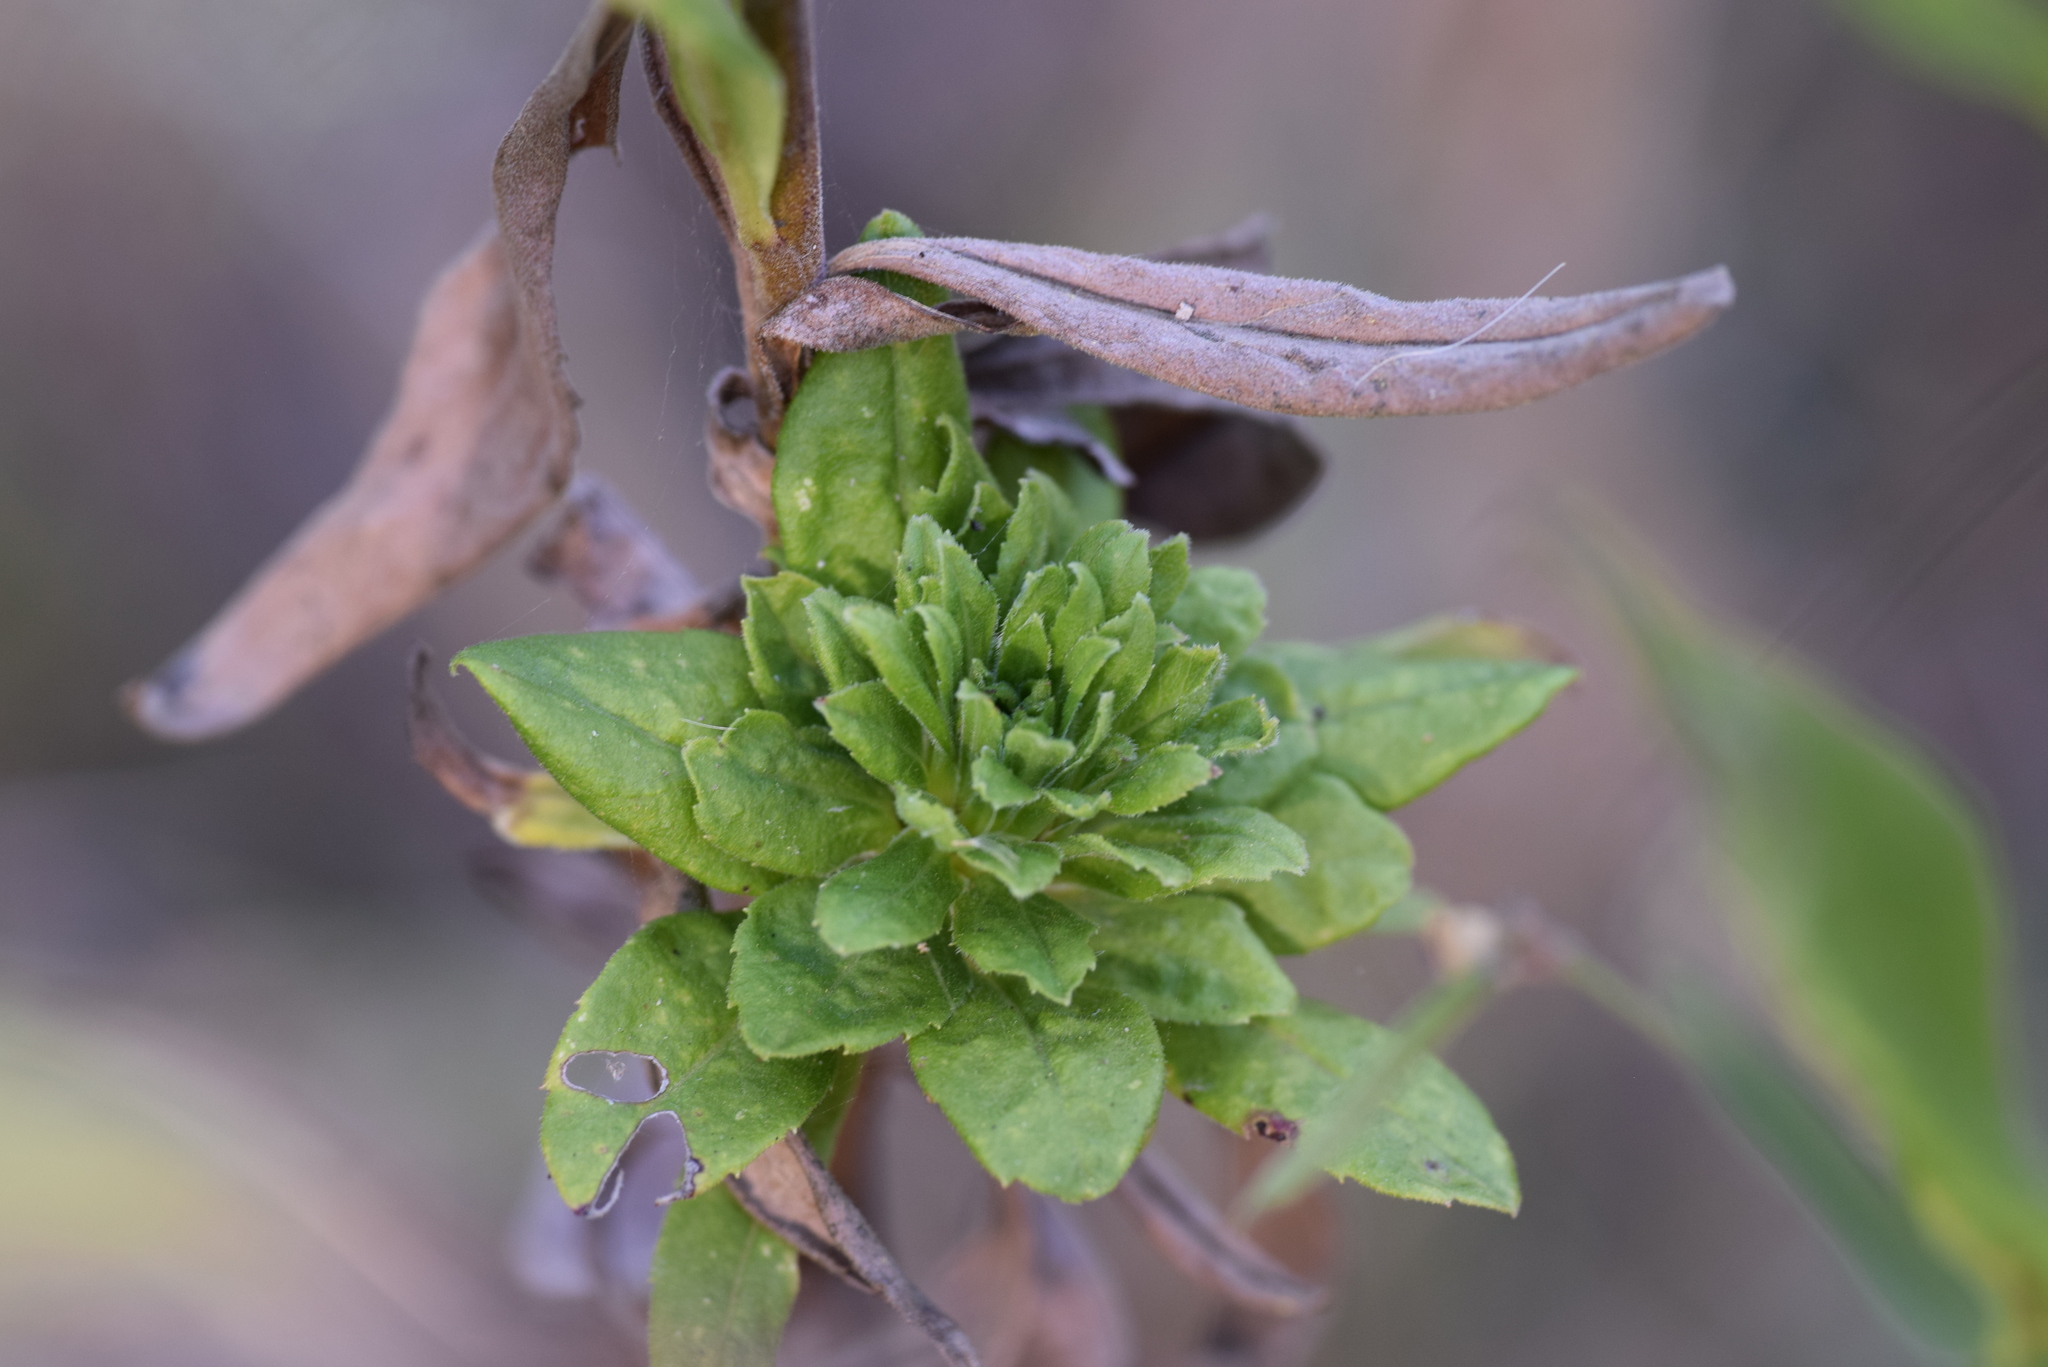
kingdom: Animalia
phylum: Arthropoda
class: Insecta
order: Diptera
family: Tephritidae
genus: Procecidochares
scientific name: Procecidochares atra
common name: Goldenrod brussels sprout gall fly
